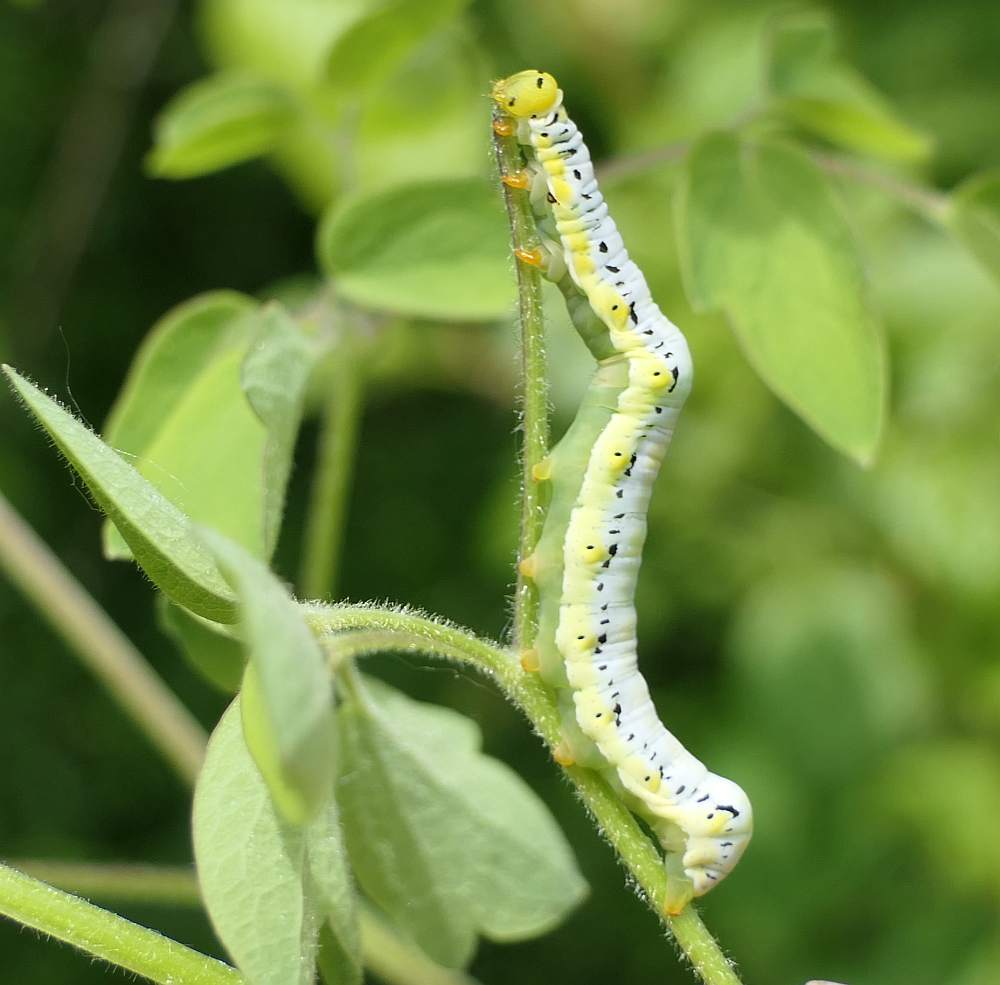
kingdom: Animalia
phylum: Arthropoda
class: Insecta
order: Lepidoptera
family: Erebidae
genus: Calyptra
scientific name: Calyptra canadensis
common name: Canadian owlet
